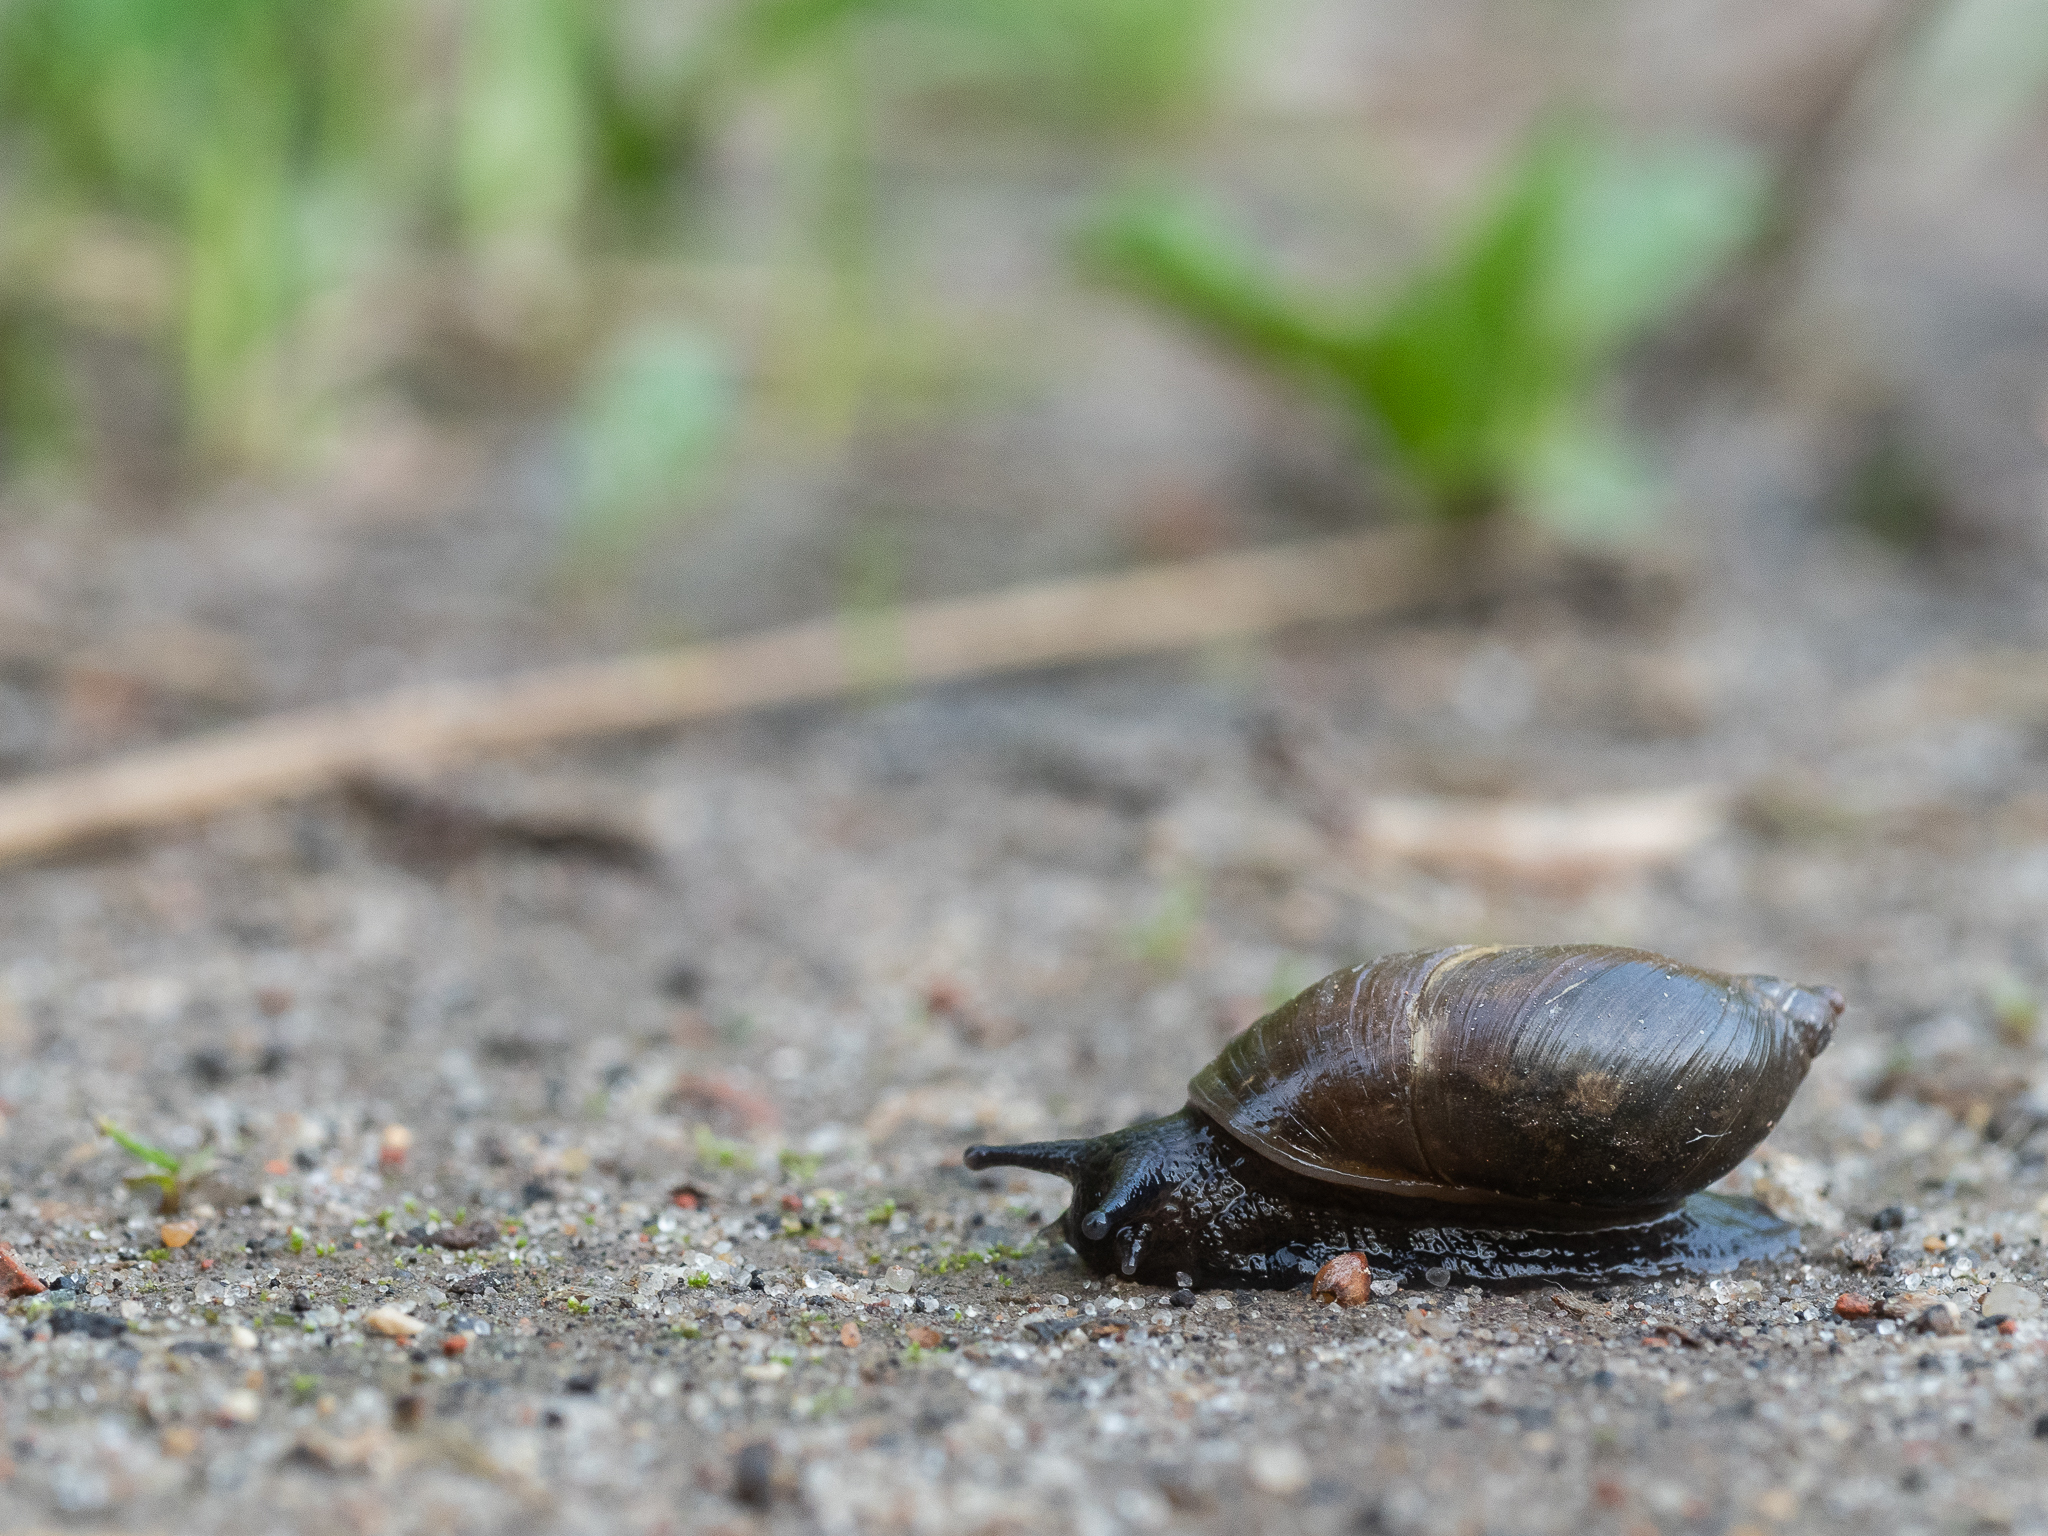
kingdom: Animalia
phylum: Mollusca
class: Gastropoda
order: Stylommatophora
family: Succineidae
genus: Succinea
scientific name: Succinea putris
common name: European ambersnail
